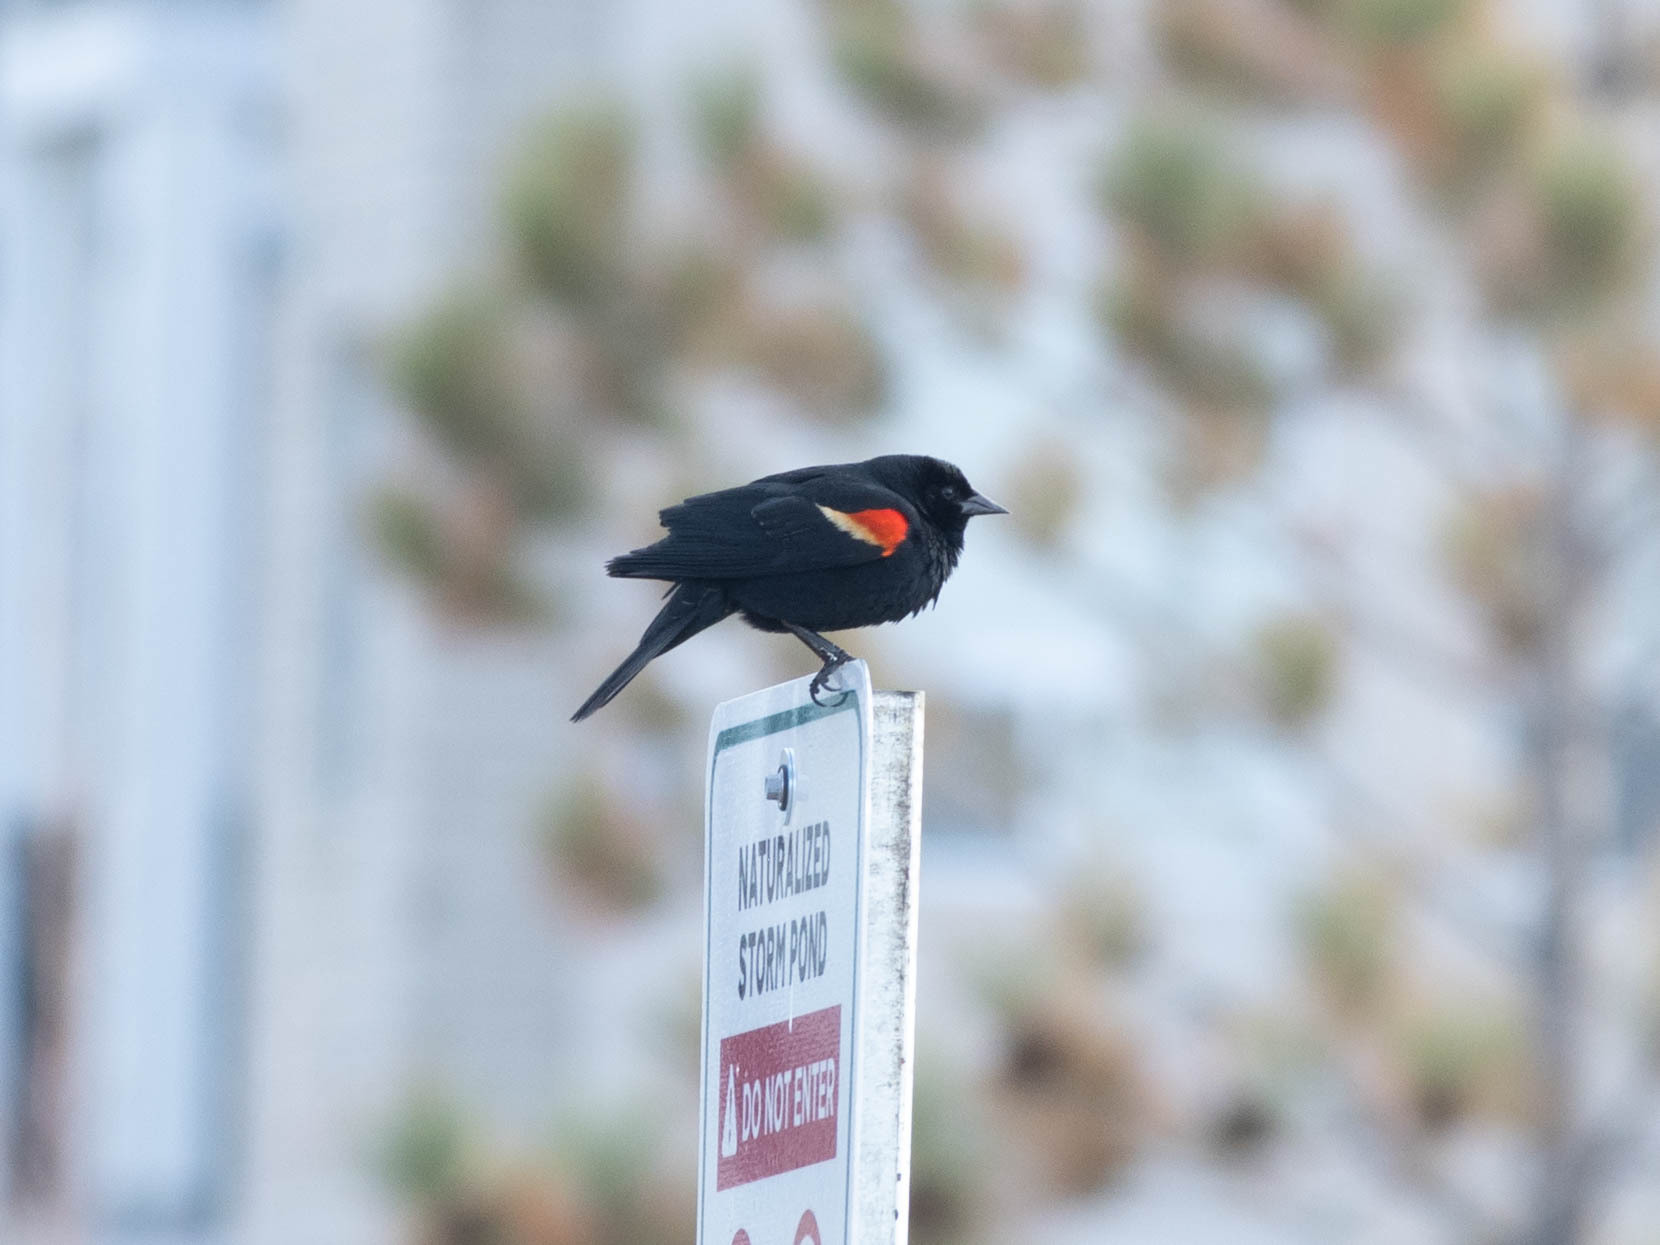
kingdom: Animalia
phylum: Chordata
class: Aves
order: Passeriformes
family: Icteridae
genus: Agelaius
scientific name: Agelaius phoeniceus
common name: Red-winged blackbird
